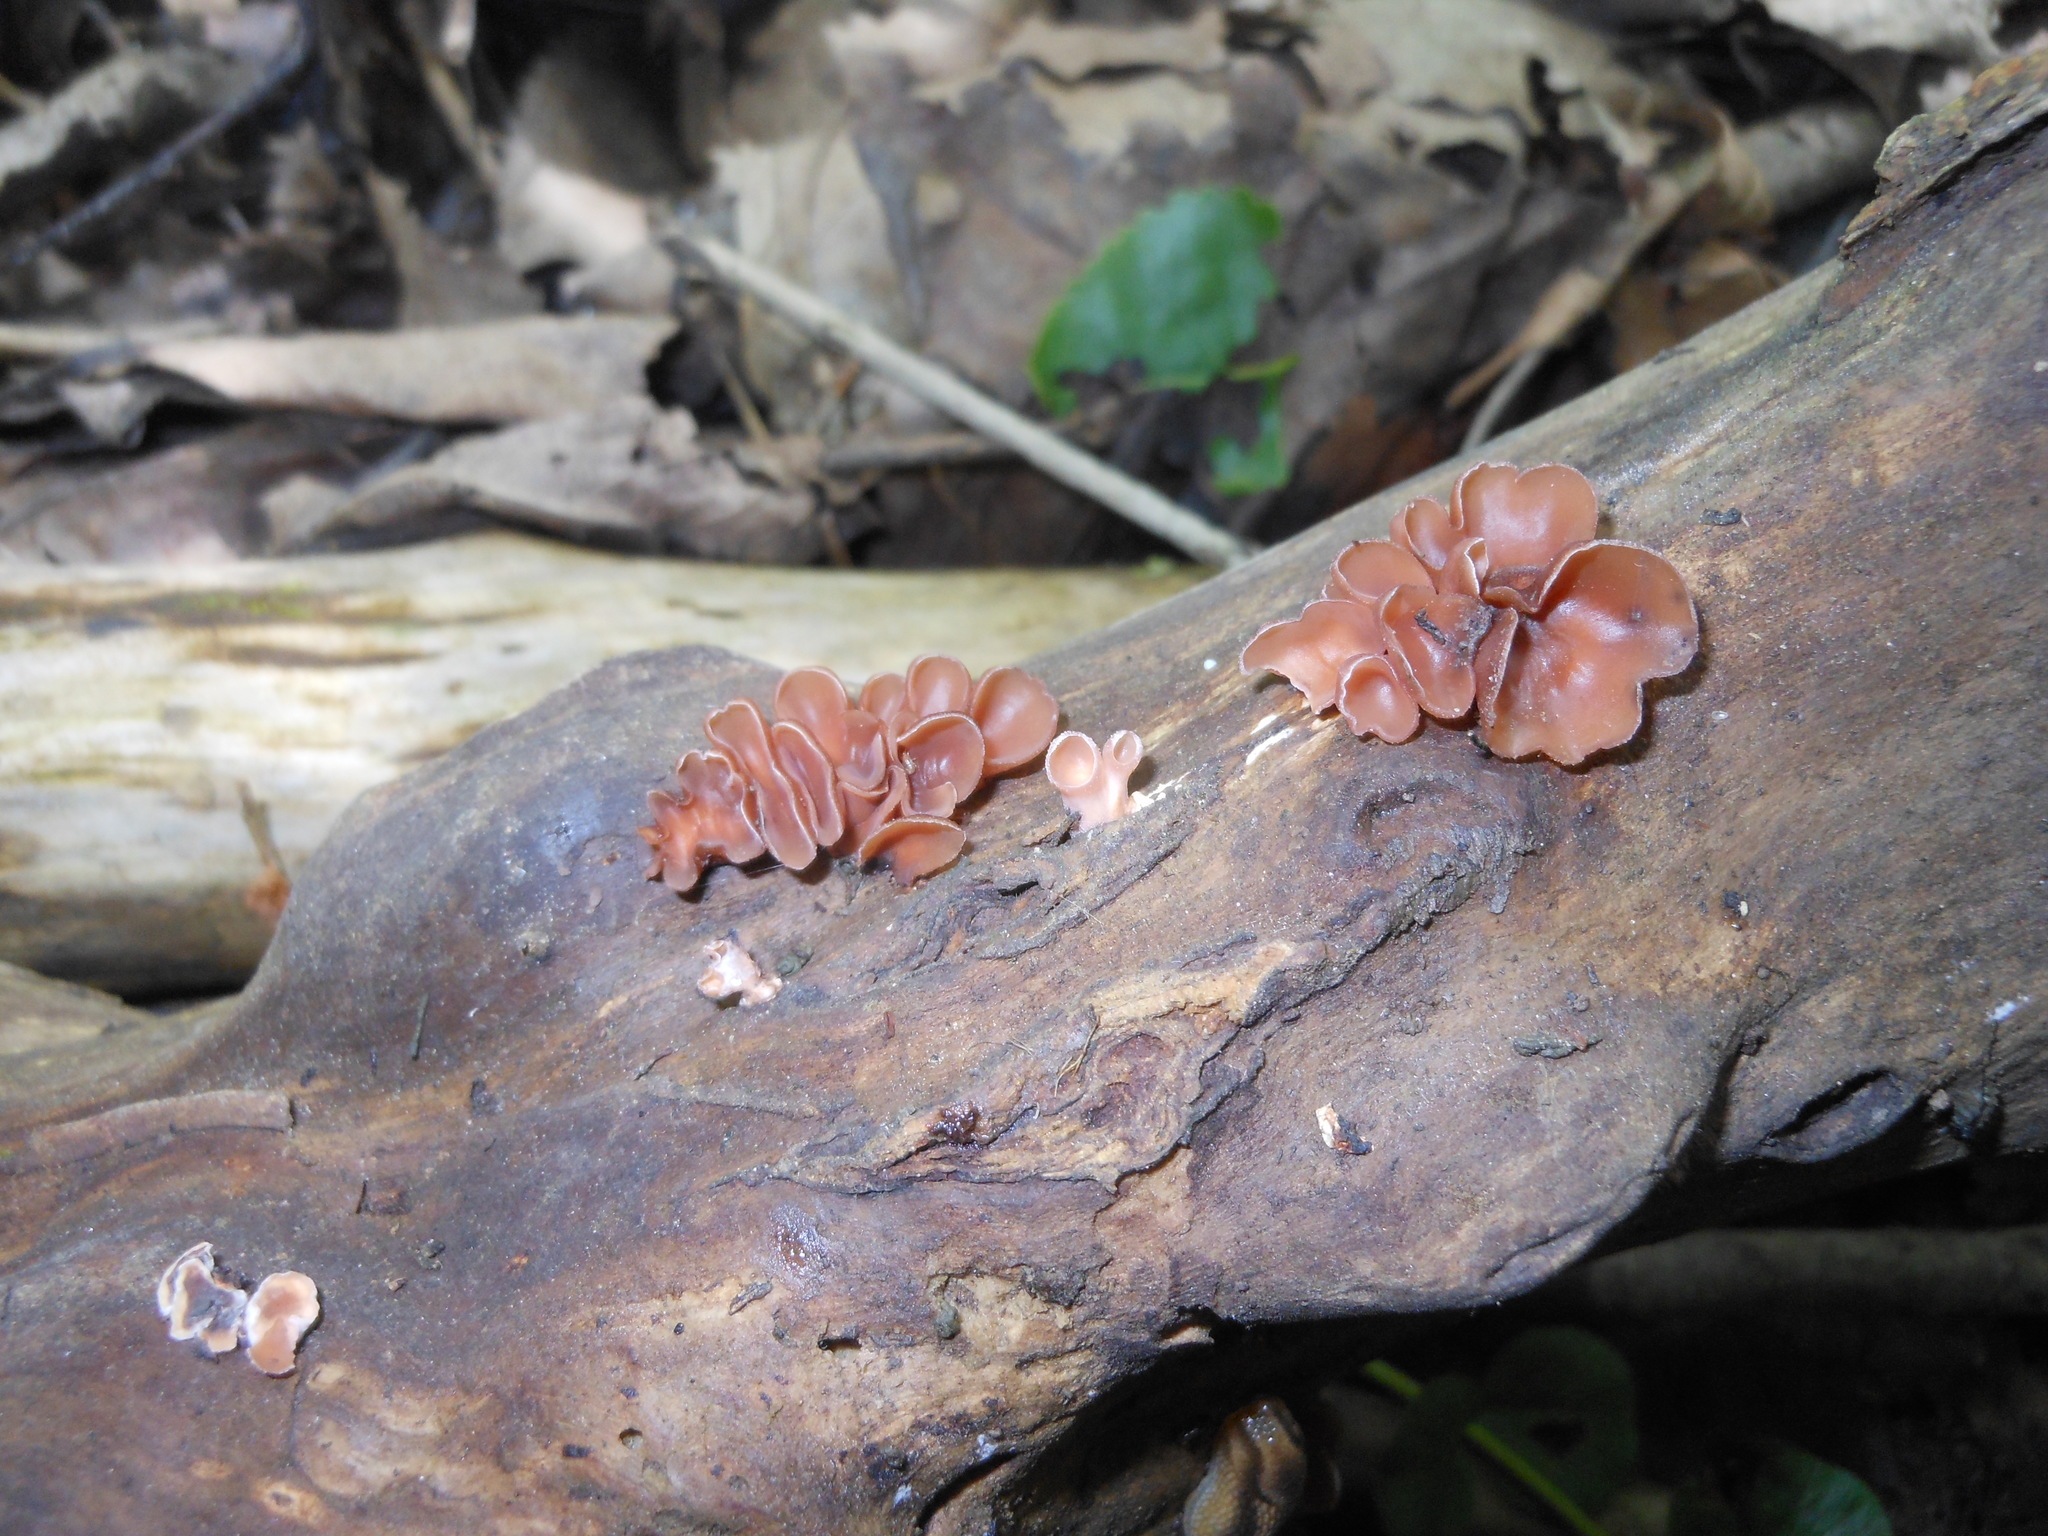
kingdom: Fungi
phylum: Basidiomycota
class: Dacrymycetes
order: Dacrymycetales
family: Dacrymycetaceae
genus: Dacryopinax
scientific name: Dacryopinax elegans
